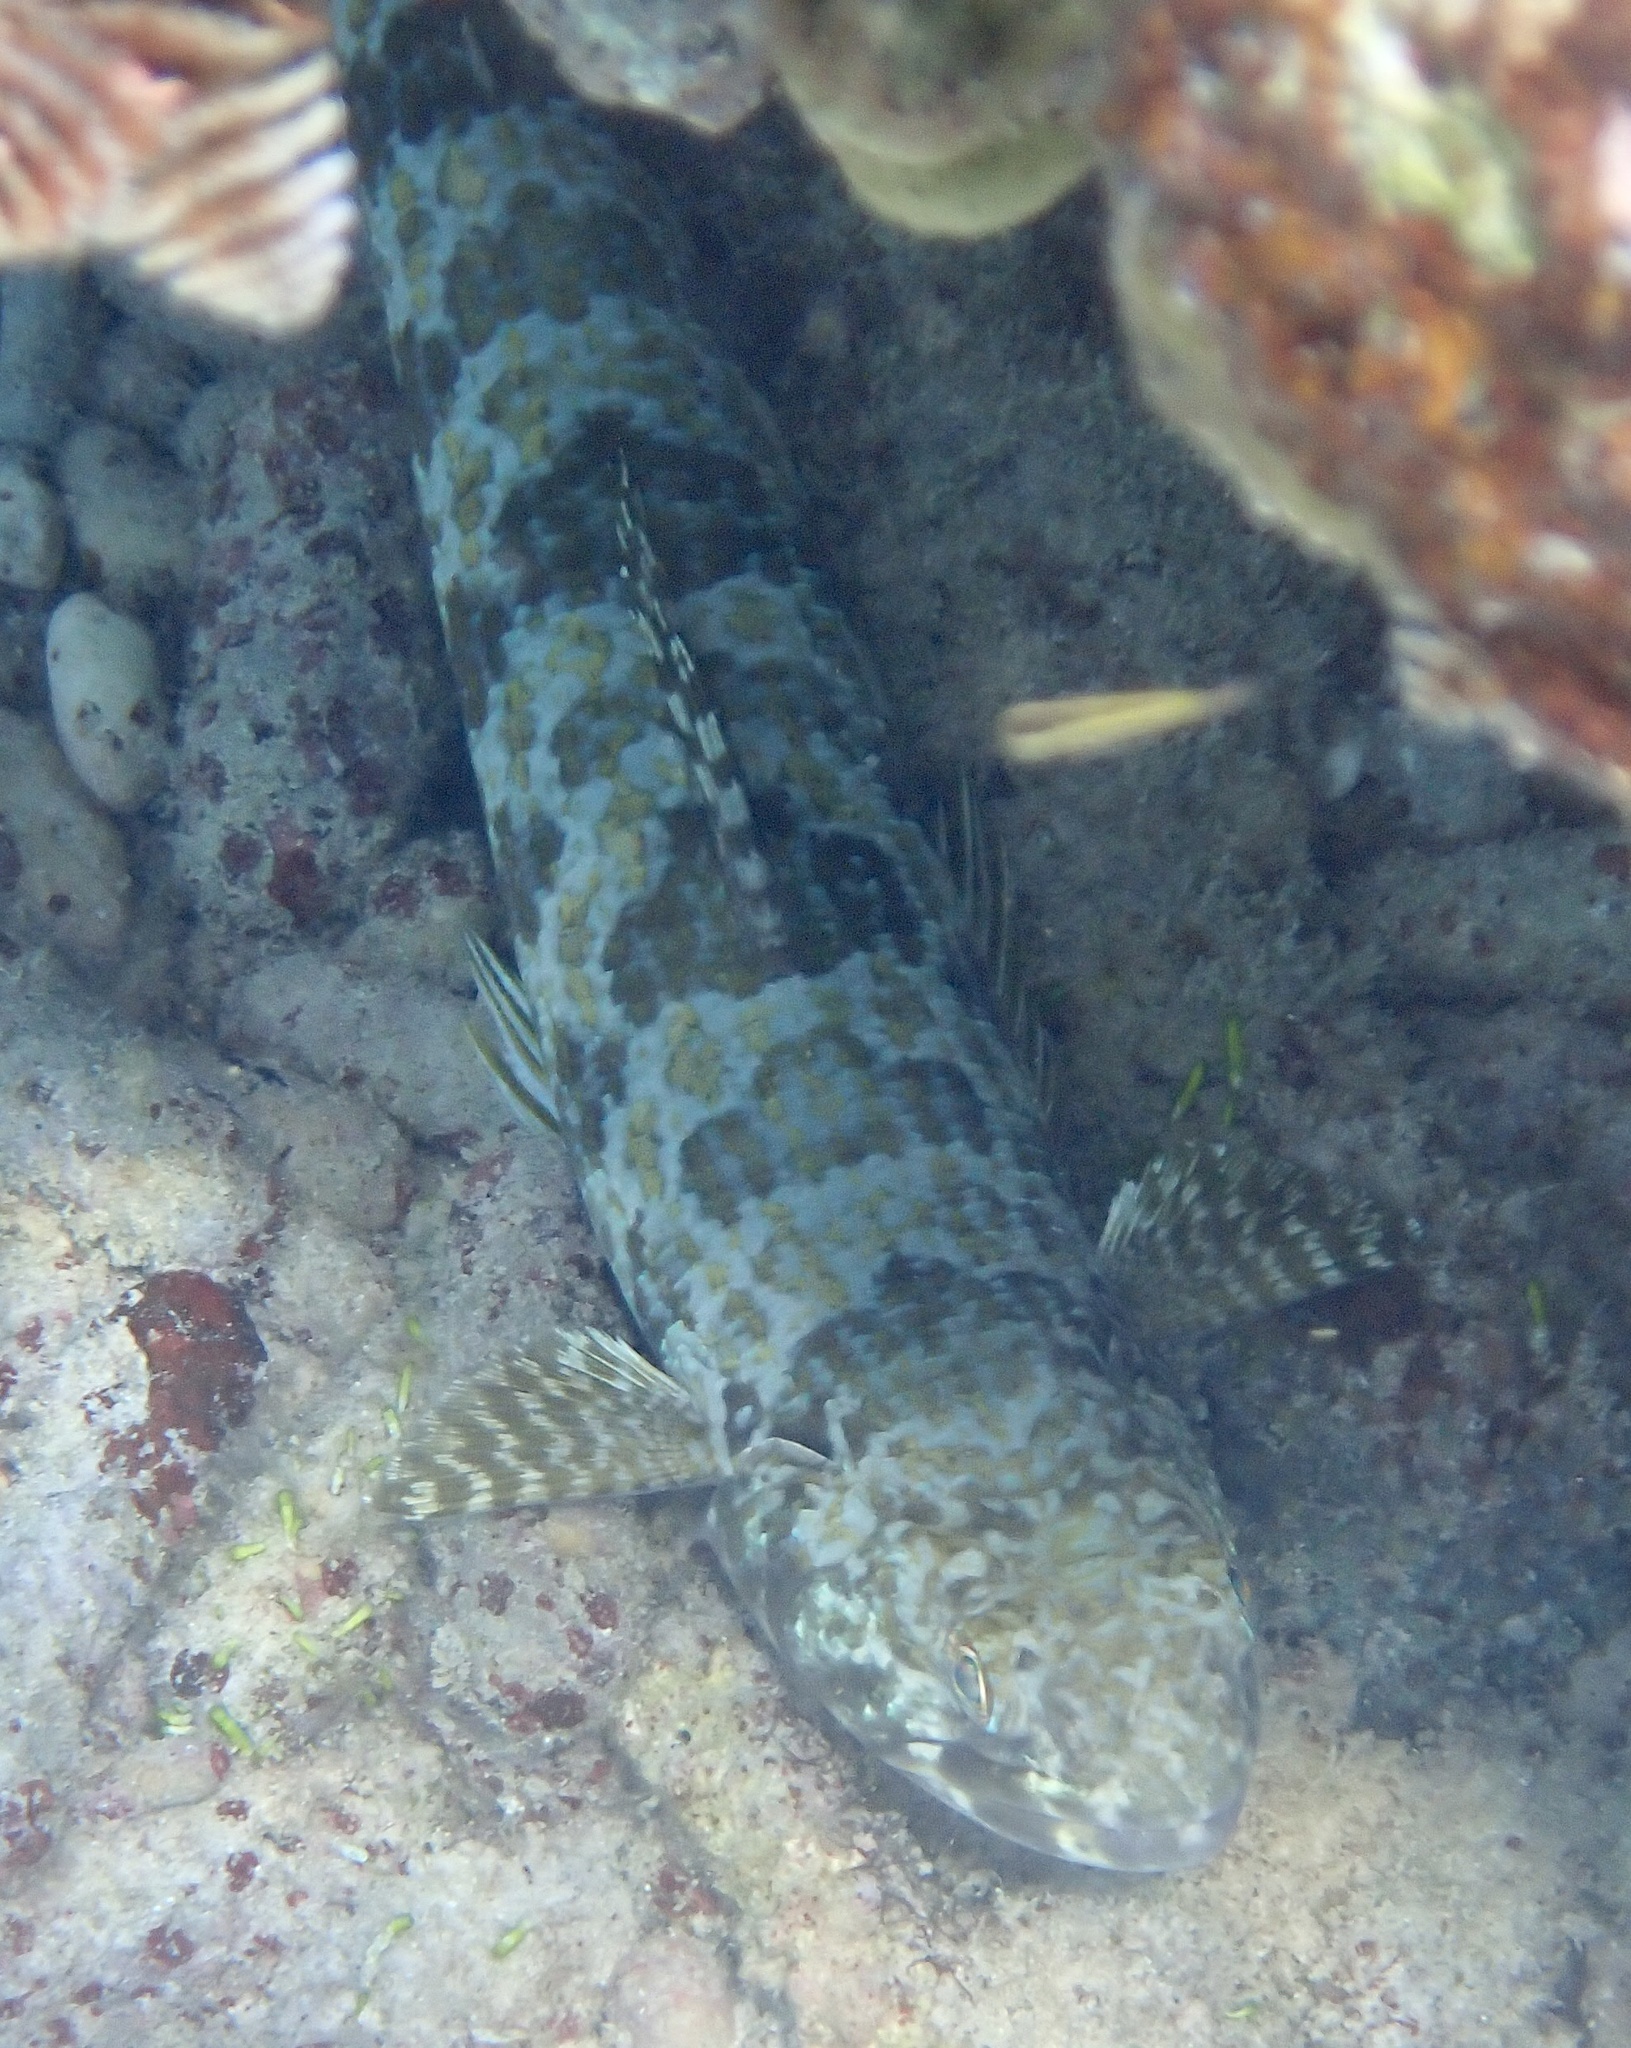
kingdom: Animalia
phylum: Chordata
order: Aulopiformes
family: Synodontidae
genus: Synodus
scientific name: Synodus intermedius
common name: Sand diver
